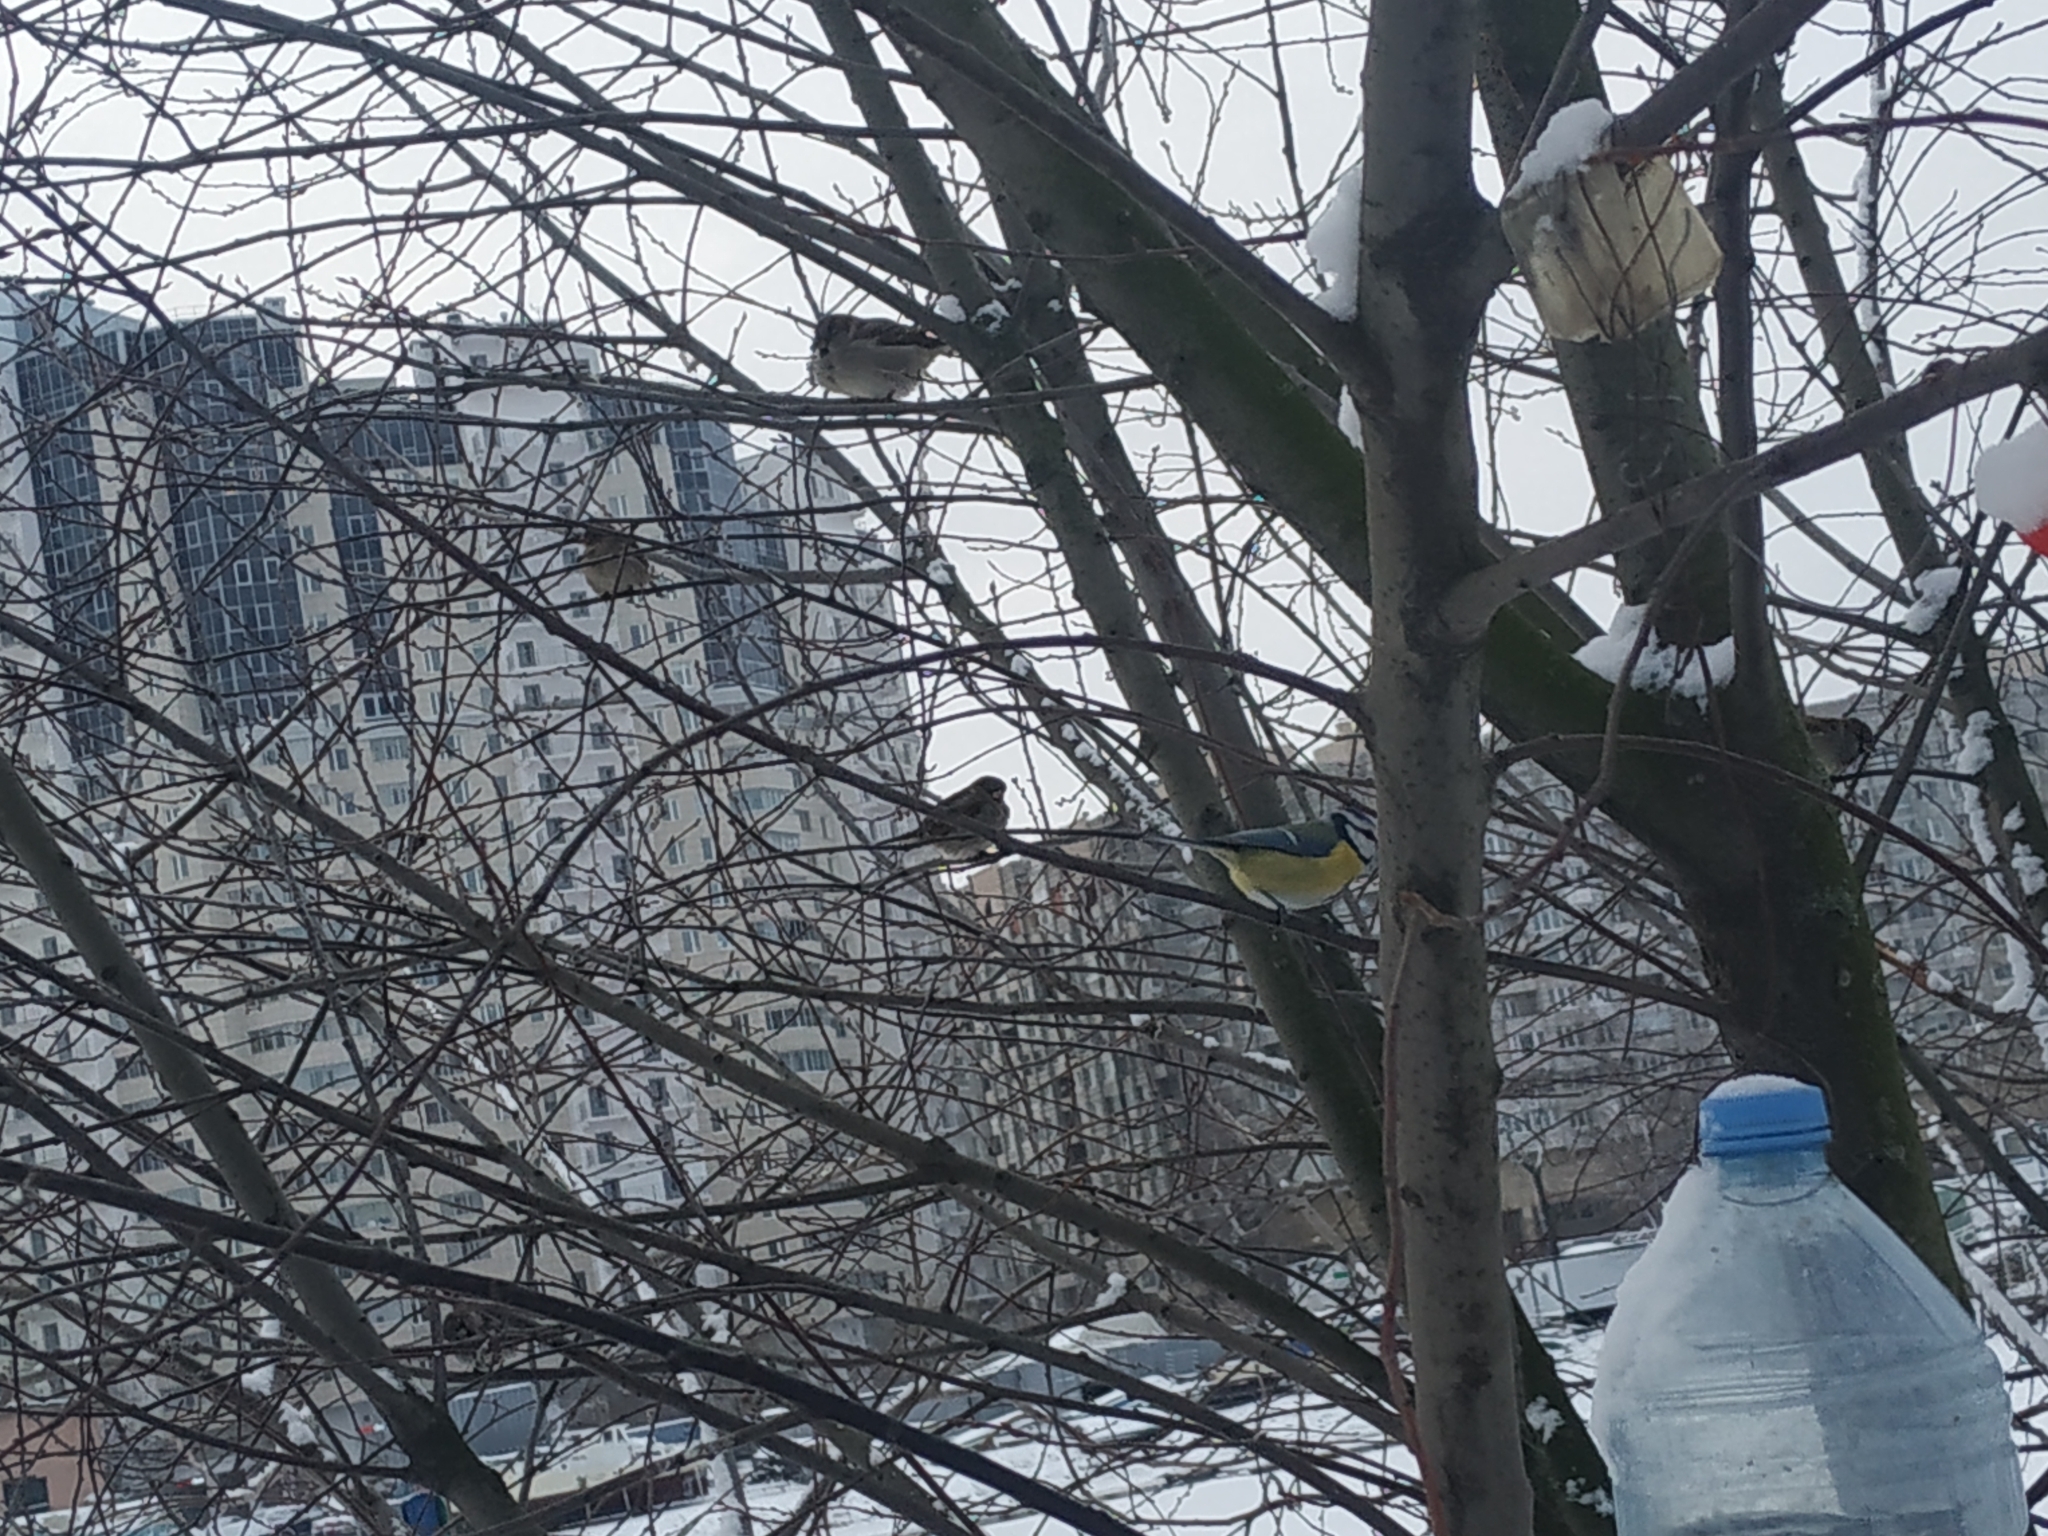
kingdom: Animalia
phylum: Chordata
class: Aves
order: Passeriformes
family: Paridae
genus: Cyanistes
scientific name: Cyanistes caeruleus
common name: Eurasian blue tit
